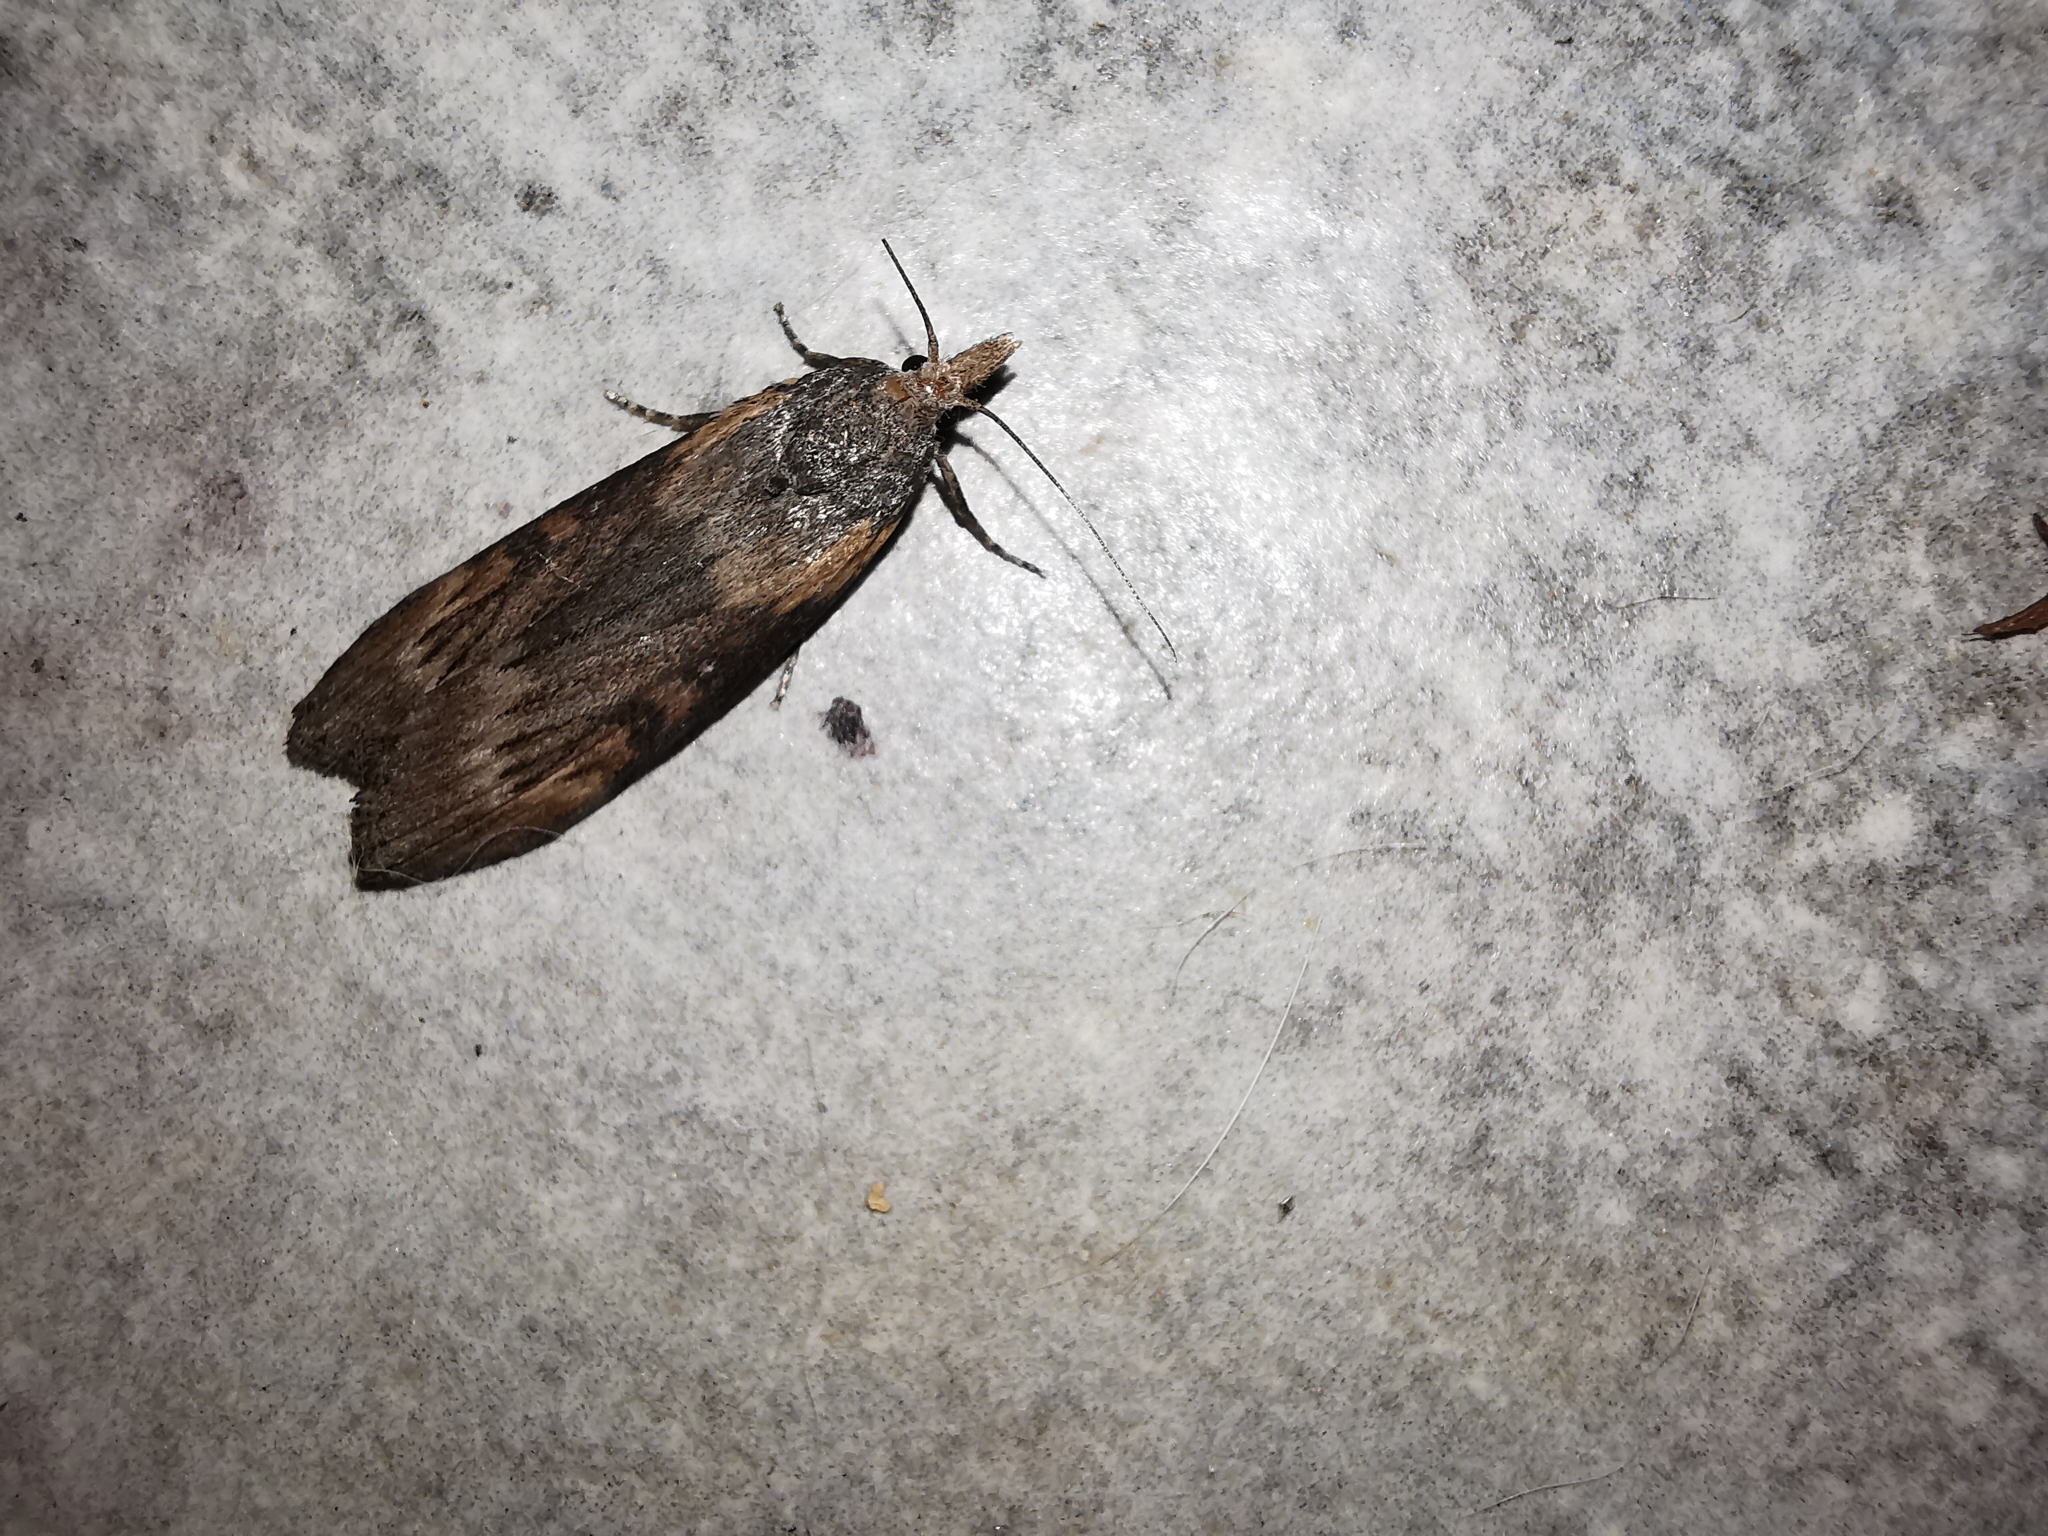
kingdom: Animalia
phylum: Arthropoda
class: Insecta
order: Lepidoptera
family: Pyralidae
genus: Lamoria
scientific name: Lamoria anella
